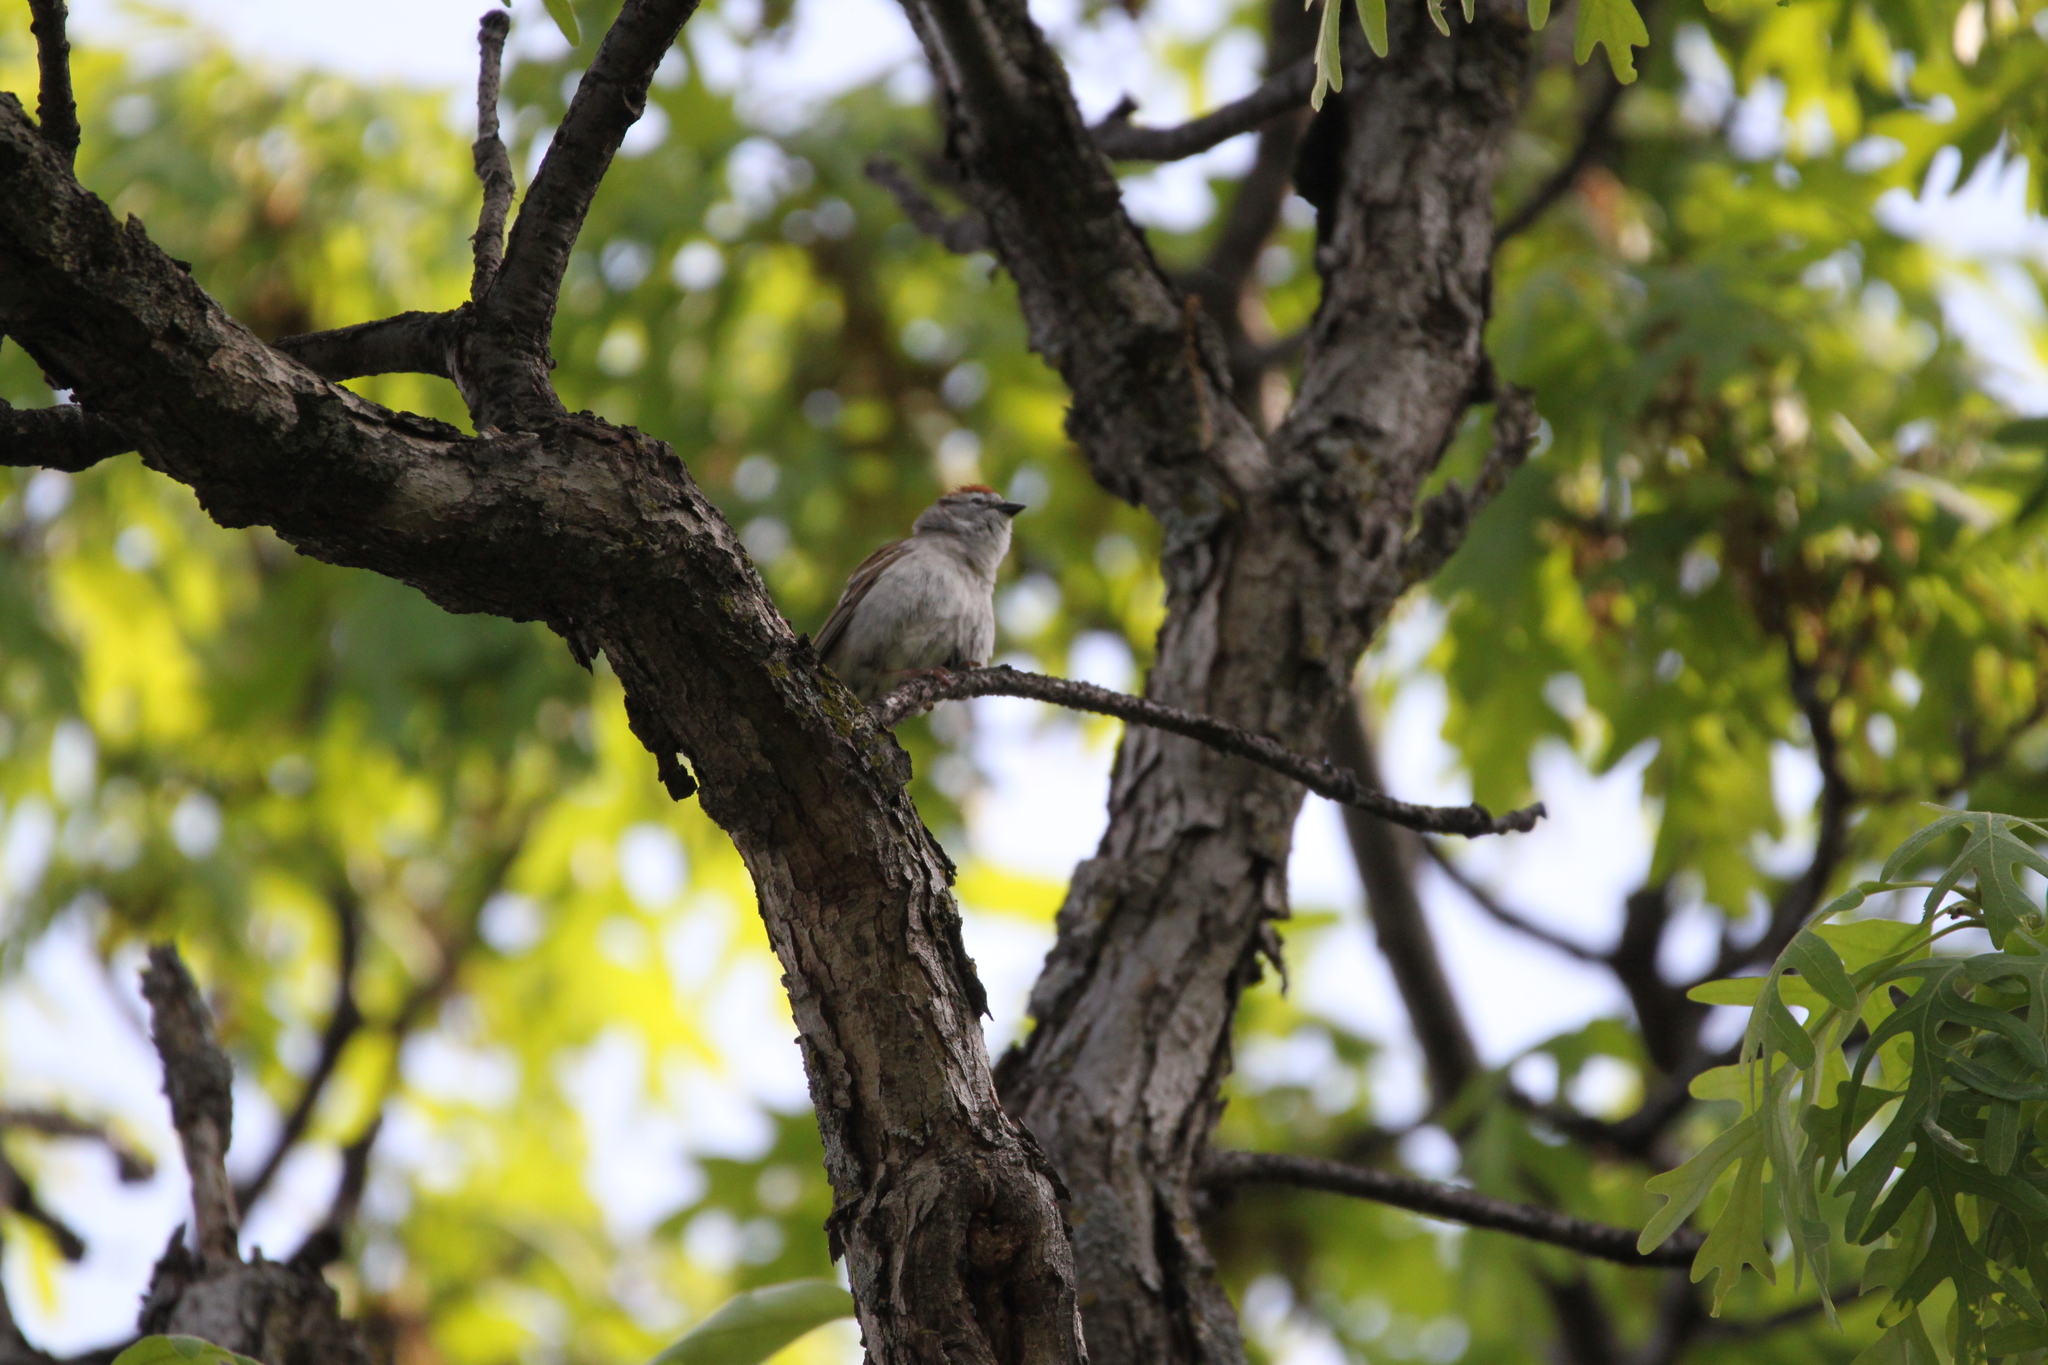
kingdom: Animalia
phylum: Chordata
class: Aves
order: Passeriformes
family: Passerellidae
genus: Spizella
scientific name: Spizella passerina
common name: Chipping sparrow
